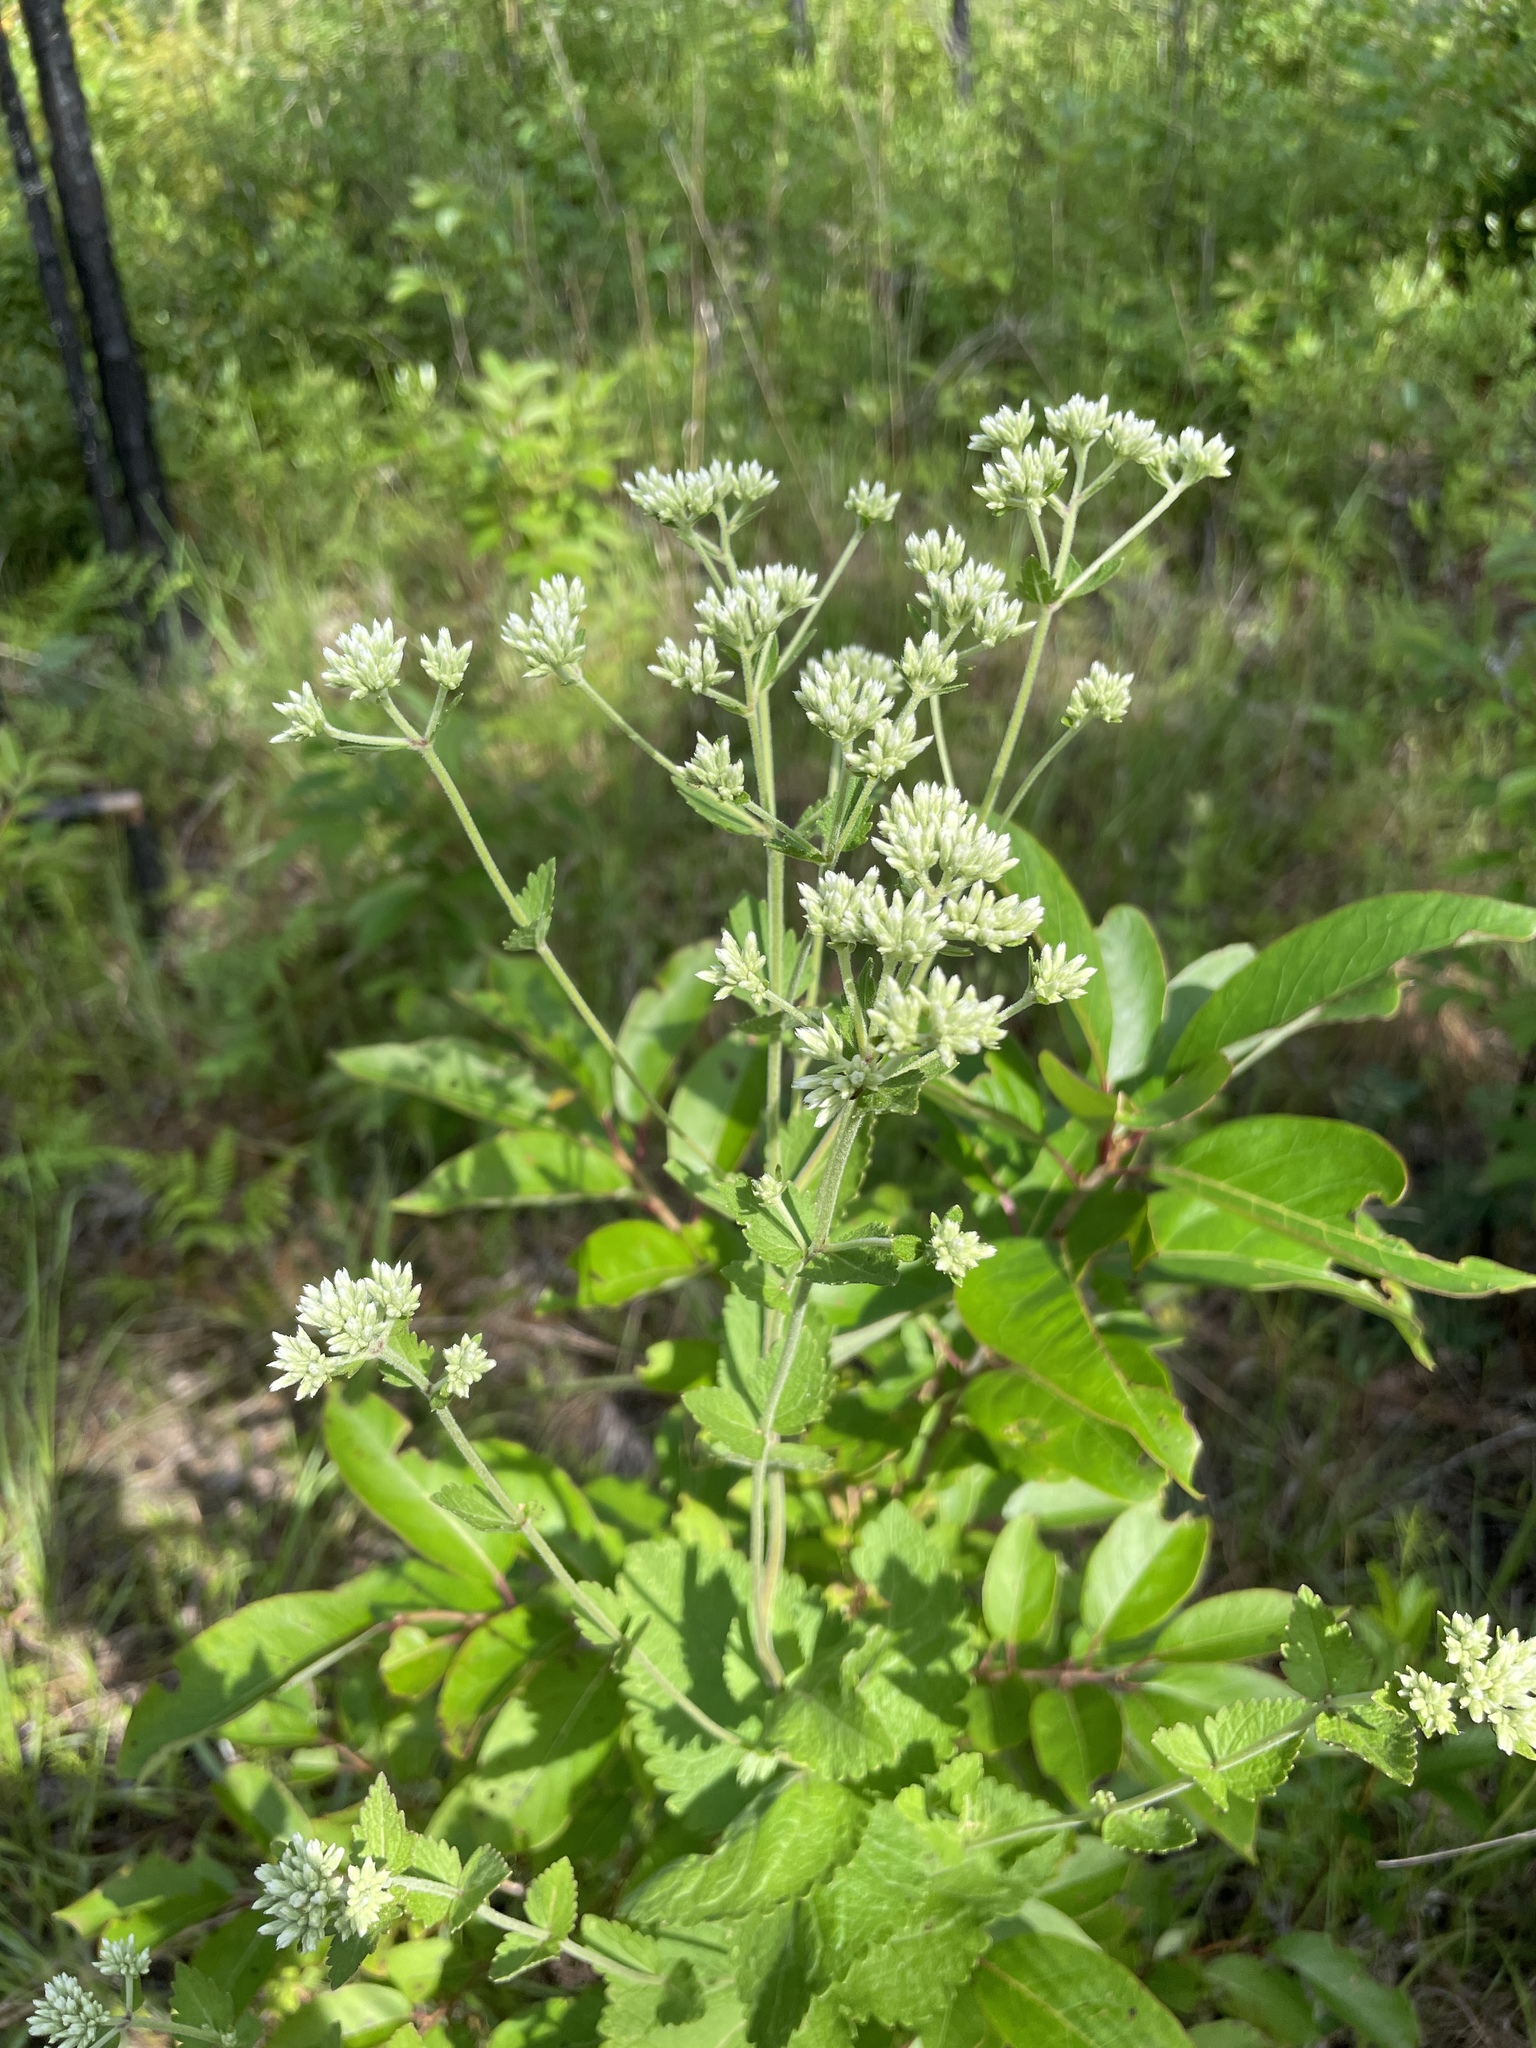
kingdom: Plantae
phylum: Tracheophyta
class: Magnoliopsida
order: Asterales
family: Asteraceae
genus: Eupatorium
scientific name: Eupatorium rotundifolium
